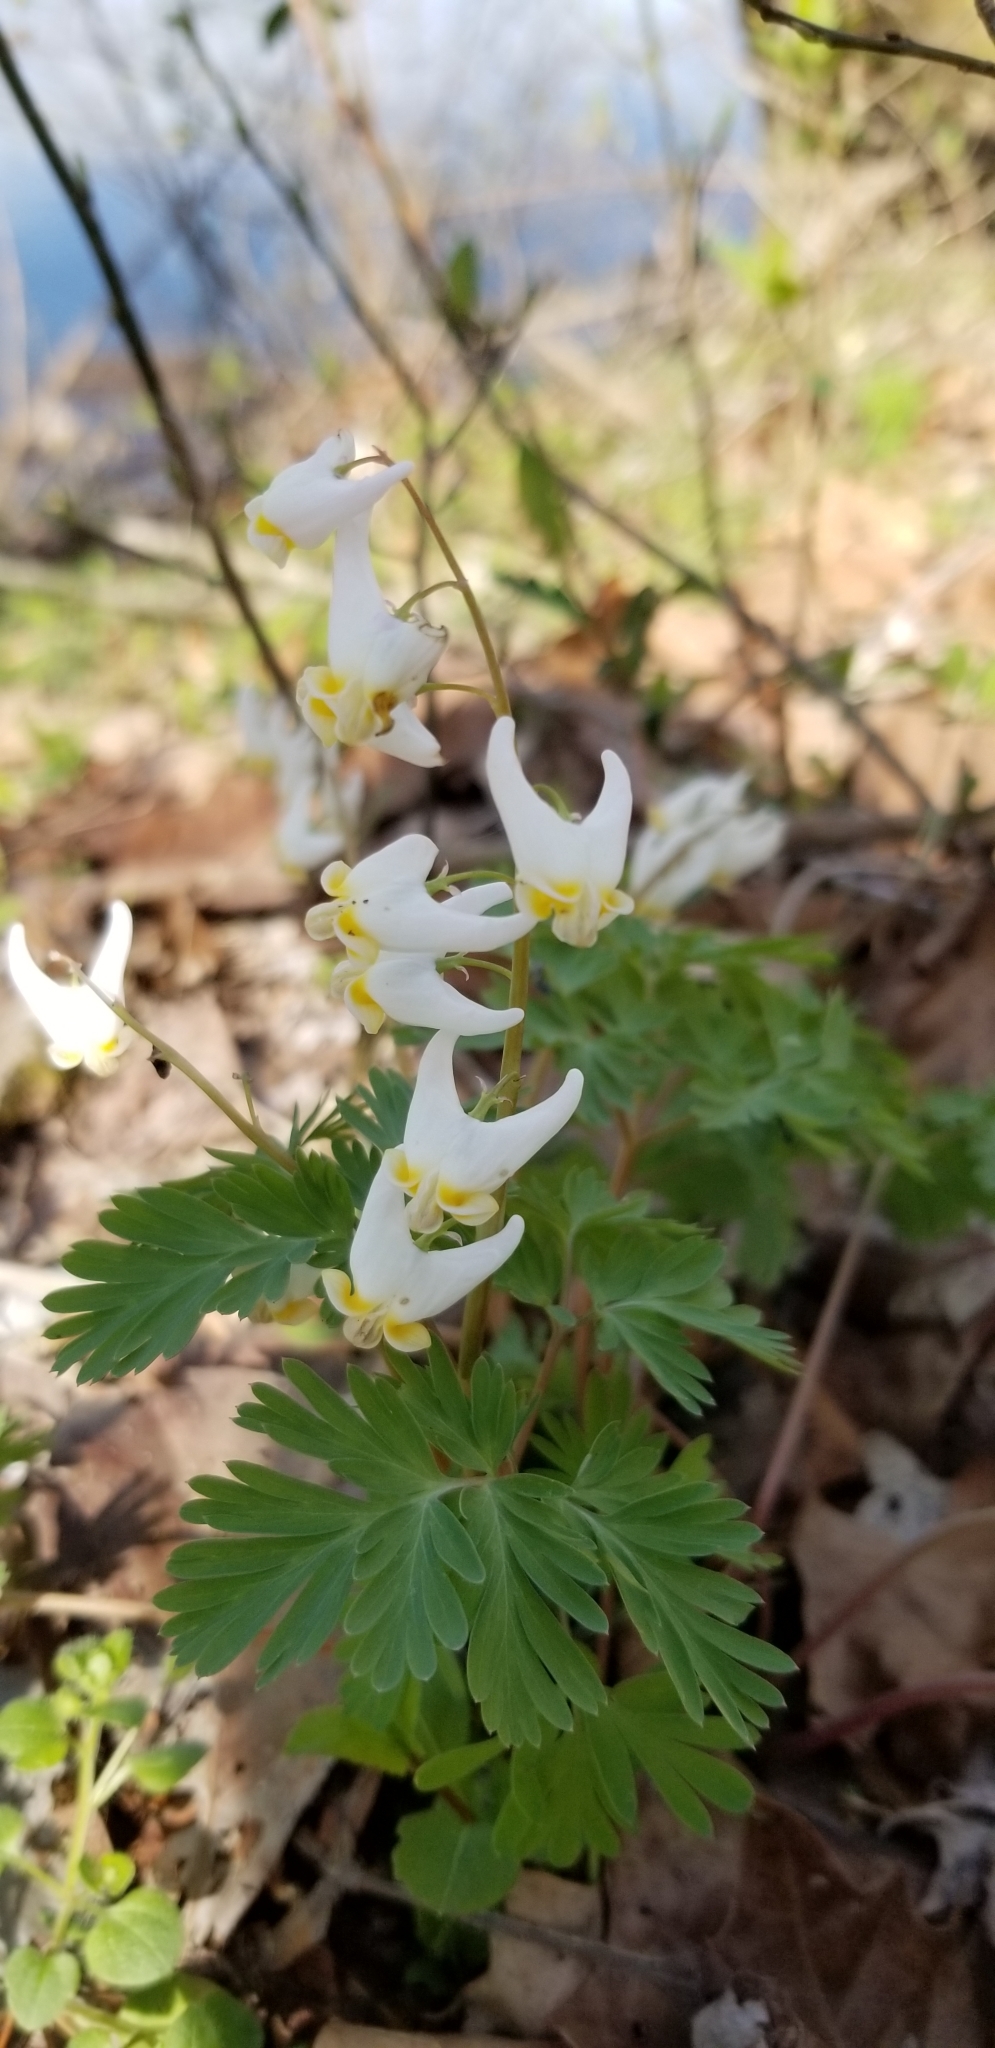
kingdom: Plantae
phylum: Tracheophyta
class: Magnoliopsida
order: Ranunculales
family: Papaveraceae
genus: Dicentra
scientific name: Dicentra cucullaria
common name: Dutchman's breeches
